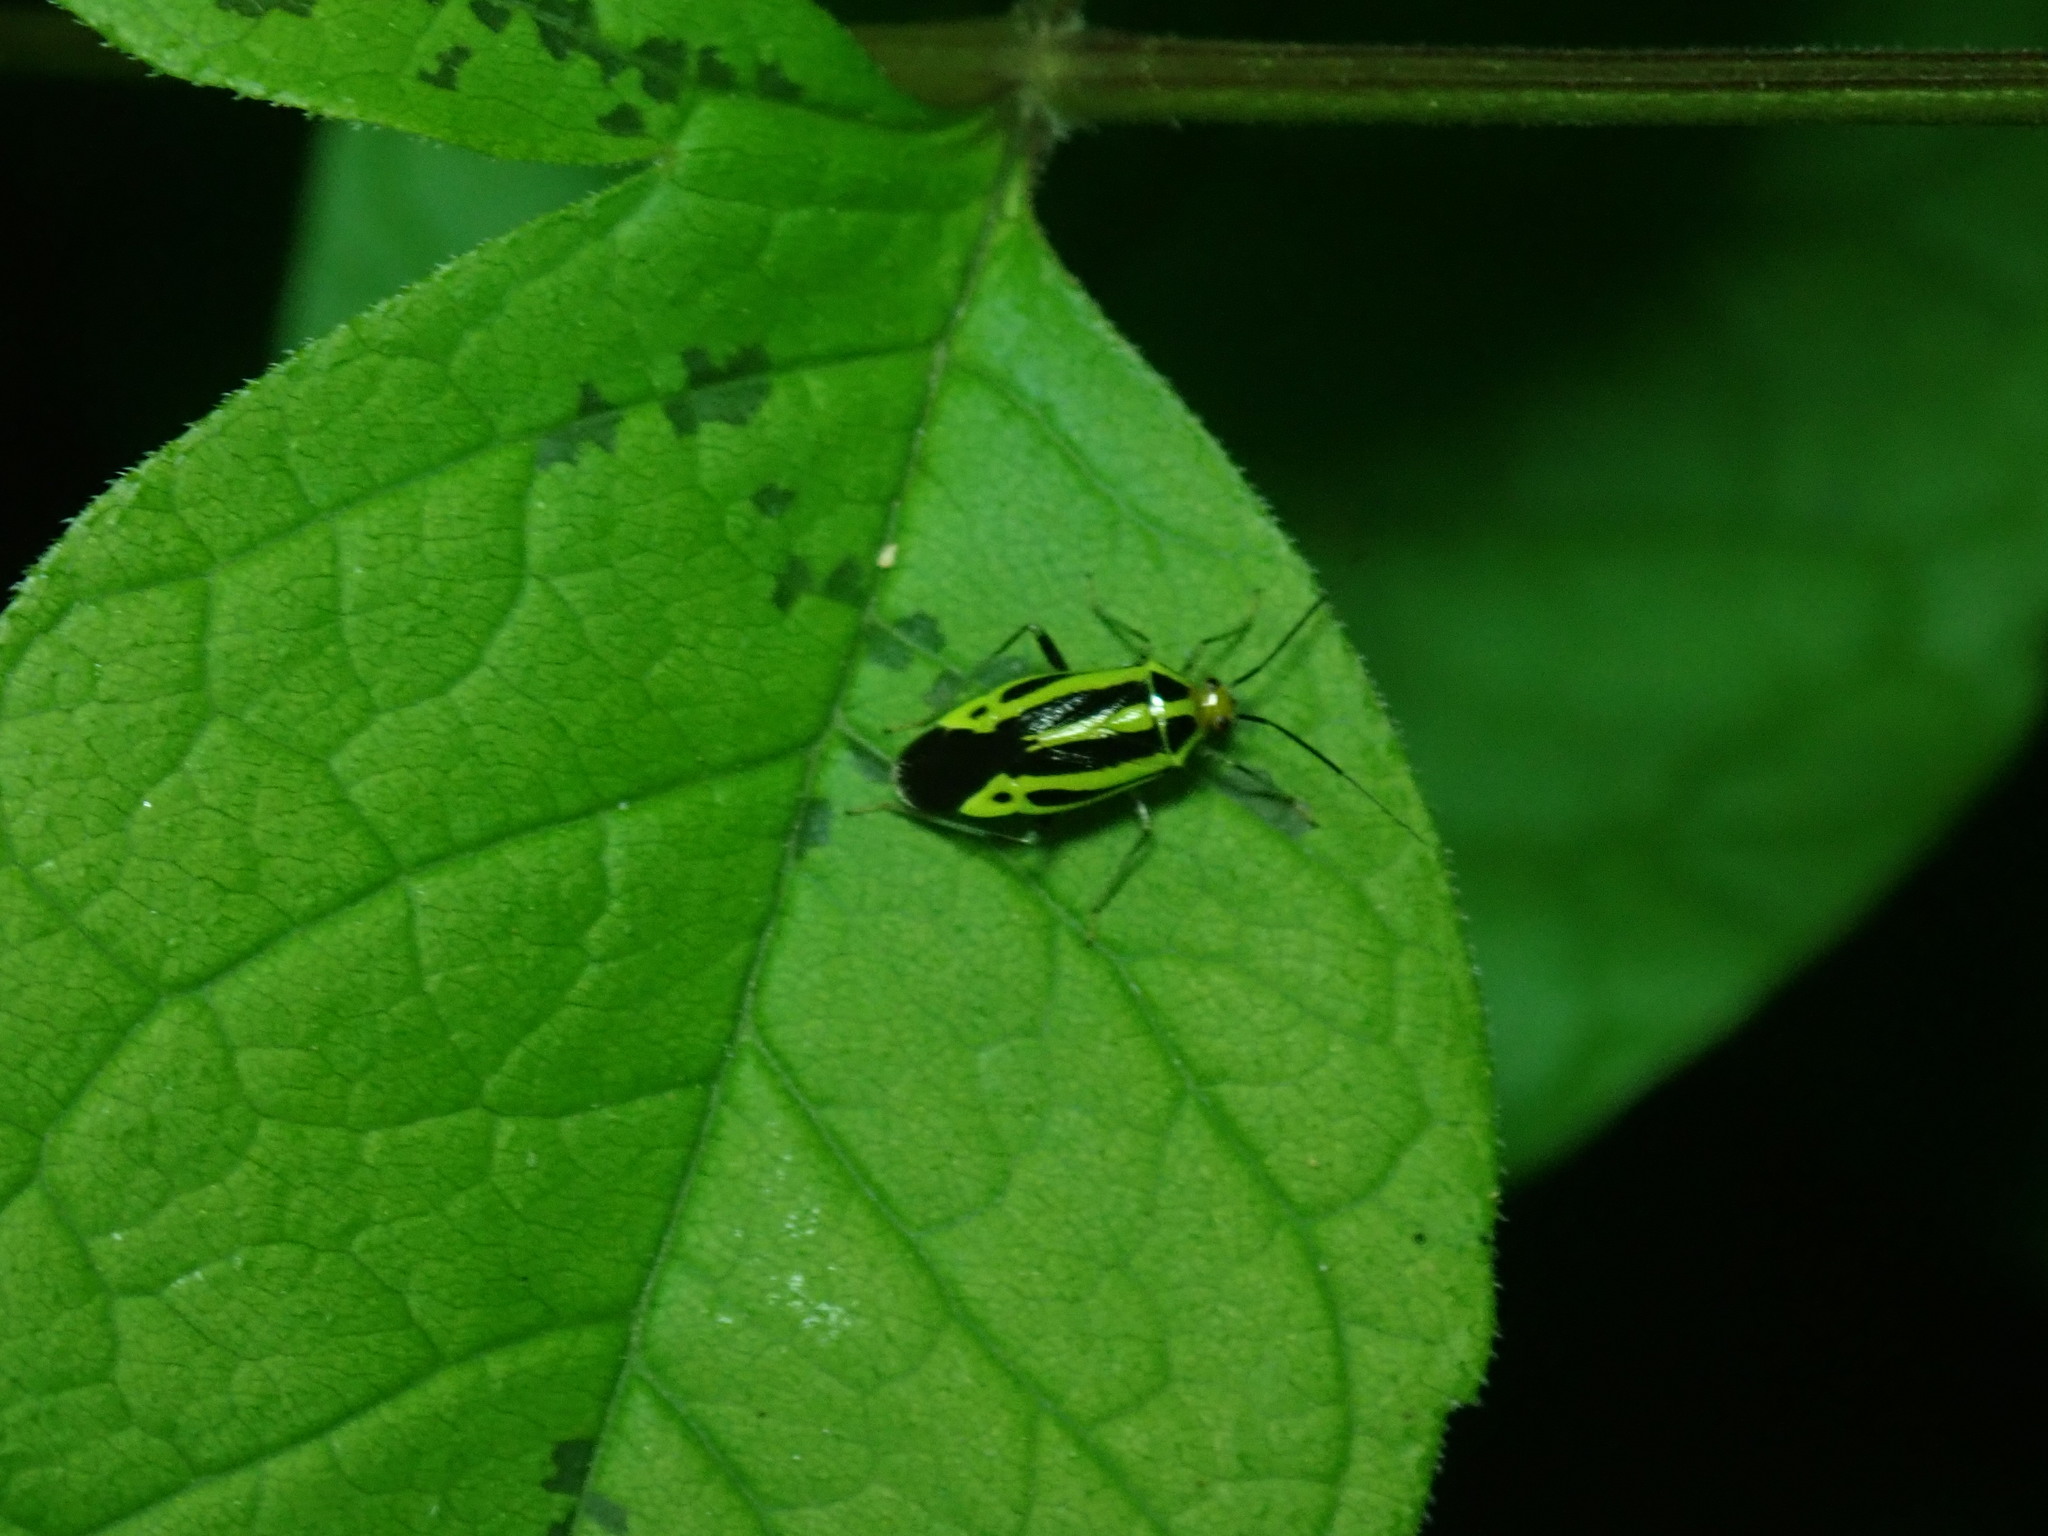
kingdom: Animalia
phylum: Arthropoda
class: Insecta
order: Hemiptera
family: Miridae
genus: Poecilocapsus
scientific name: Poecilocapsus lineatus
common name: Four-lined plant bug
